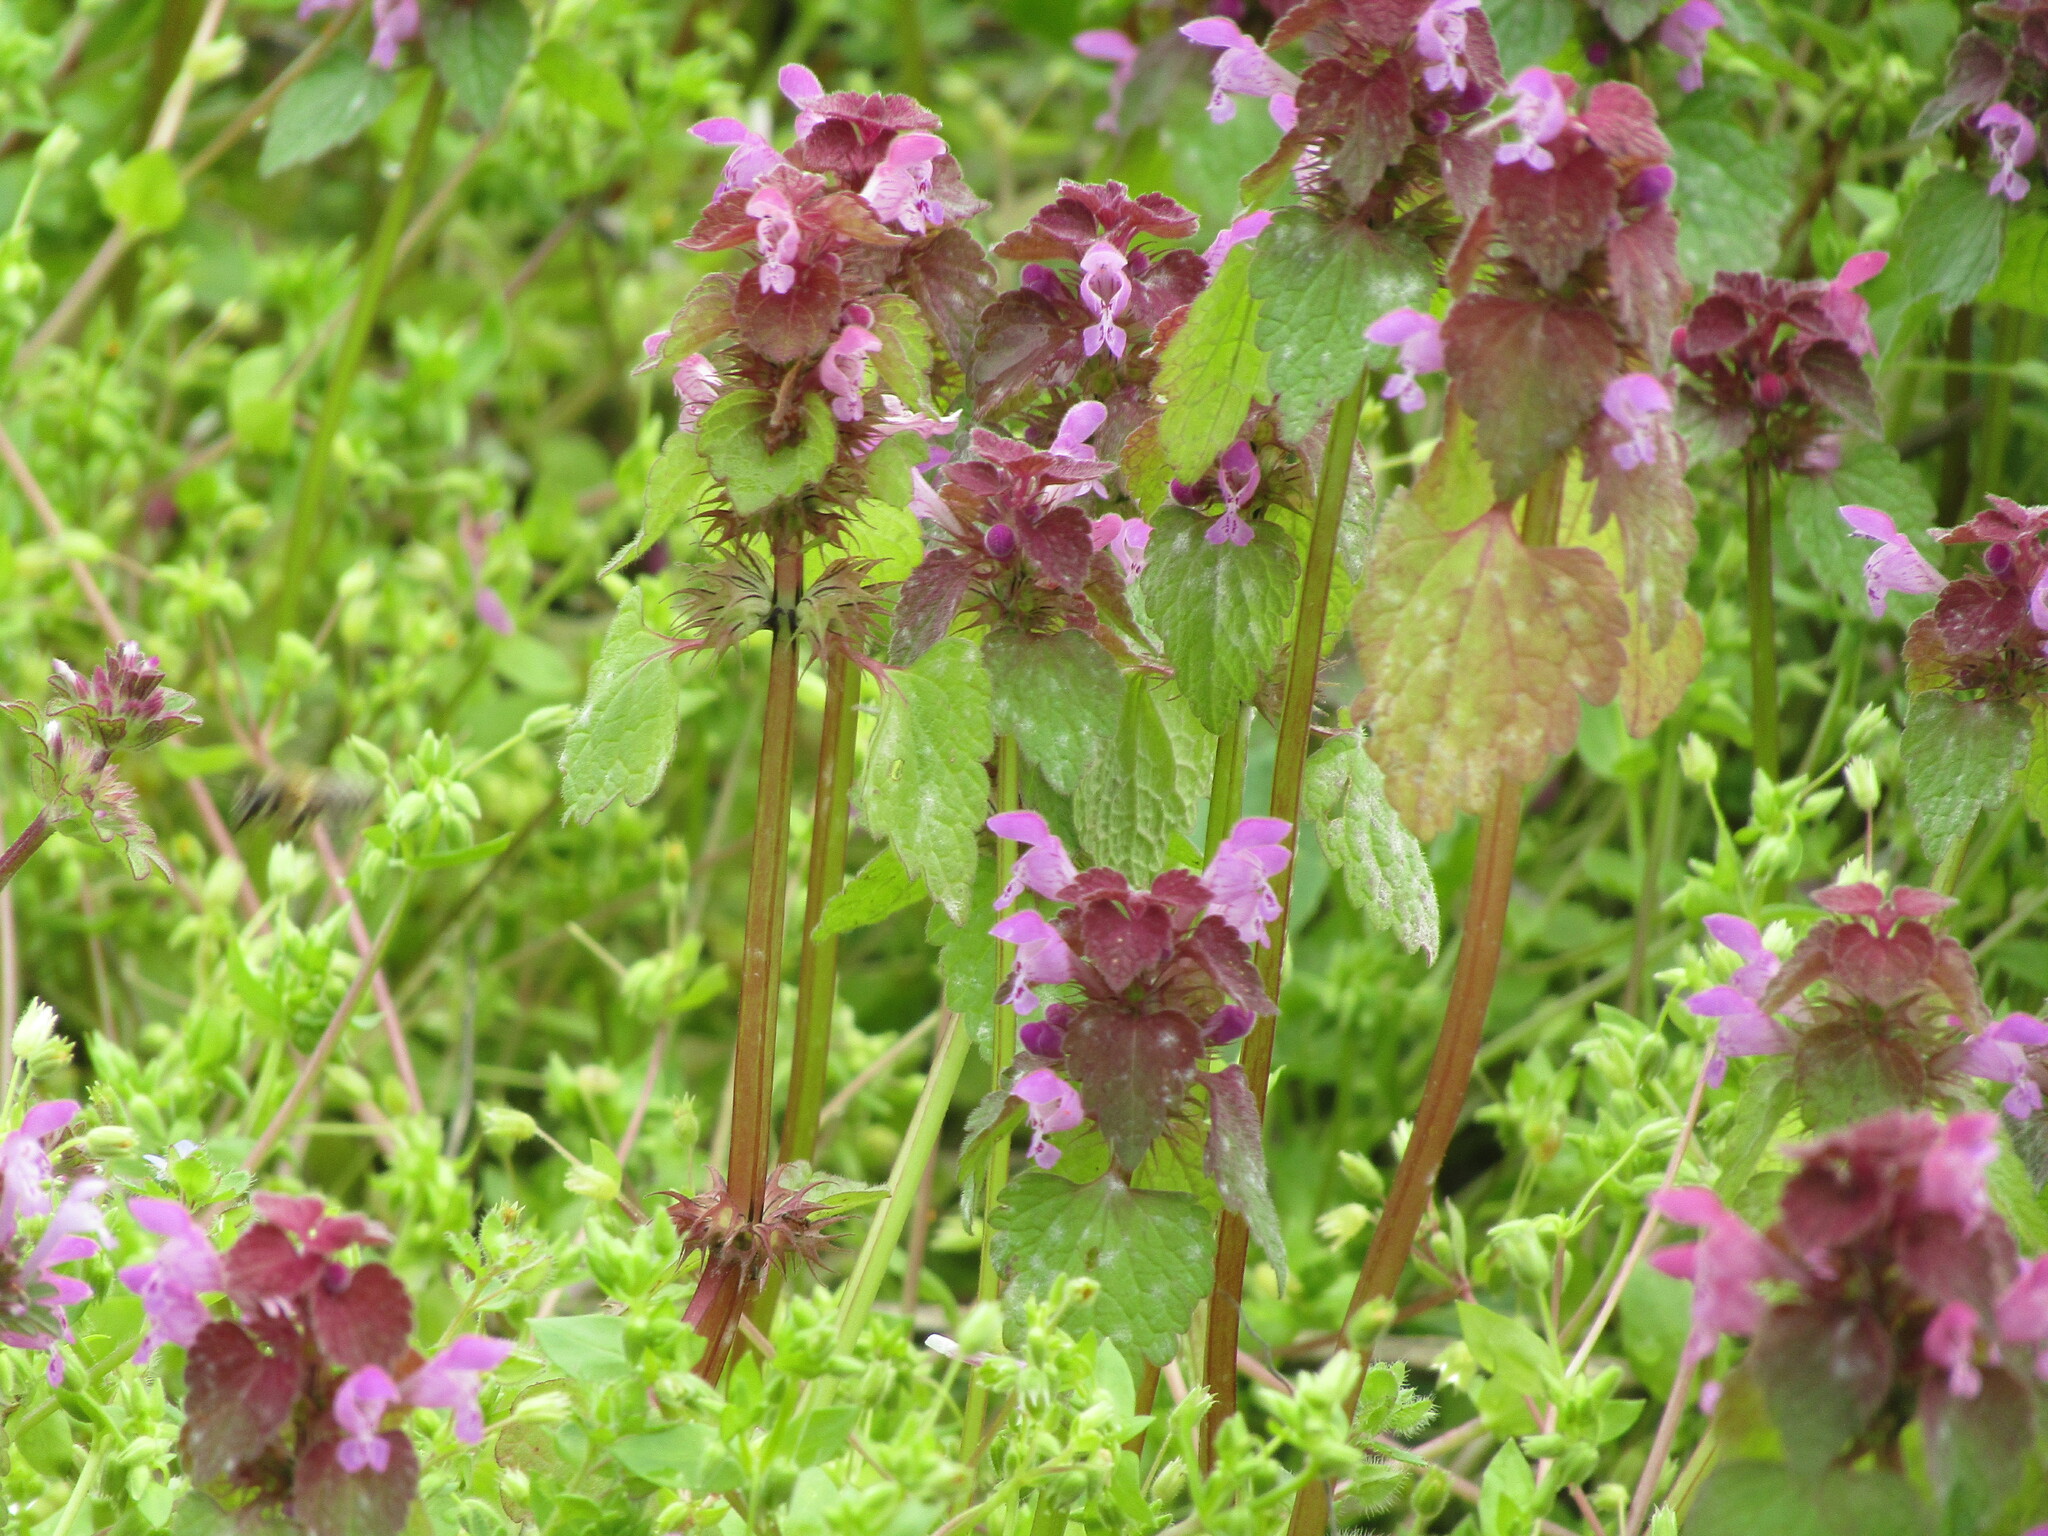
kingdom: Plantae
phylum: Tracheophyta
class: Magnoliopsida
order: Lamiales
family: Lamiaceae
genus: Lamium
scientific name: Lamium purpureum
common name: Red dead-nettle
